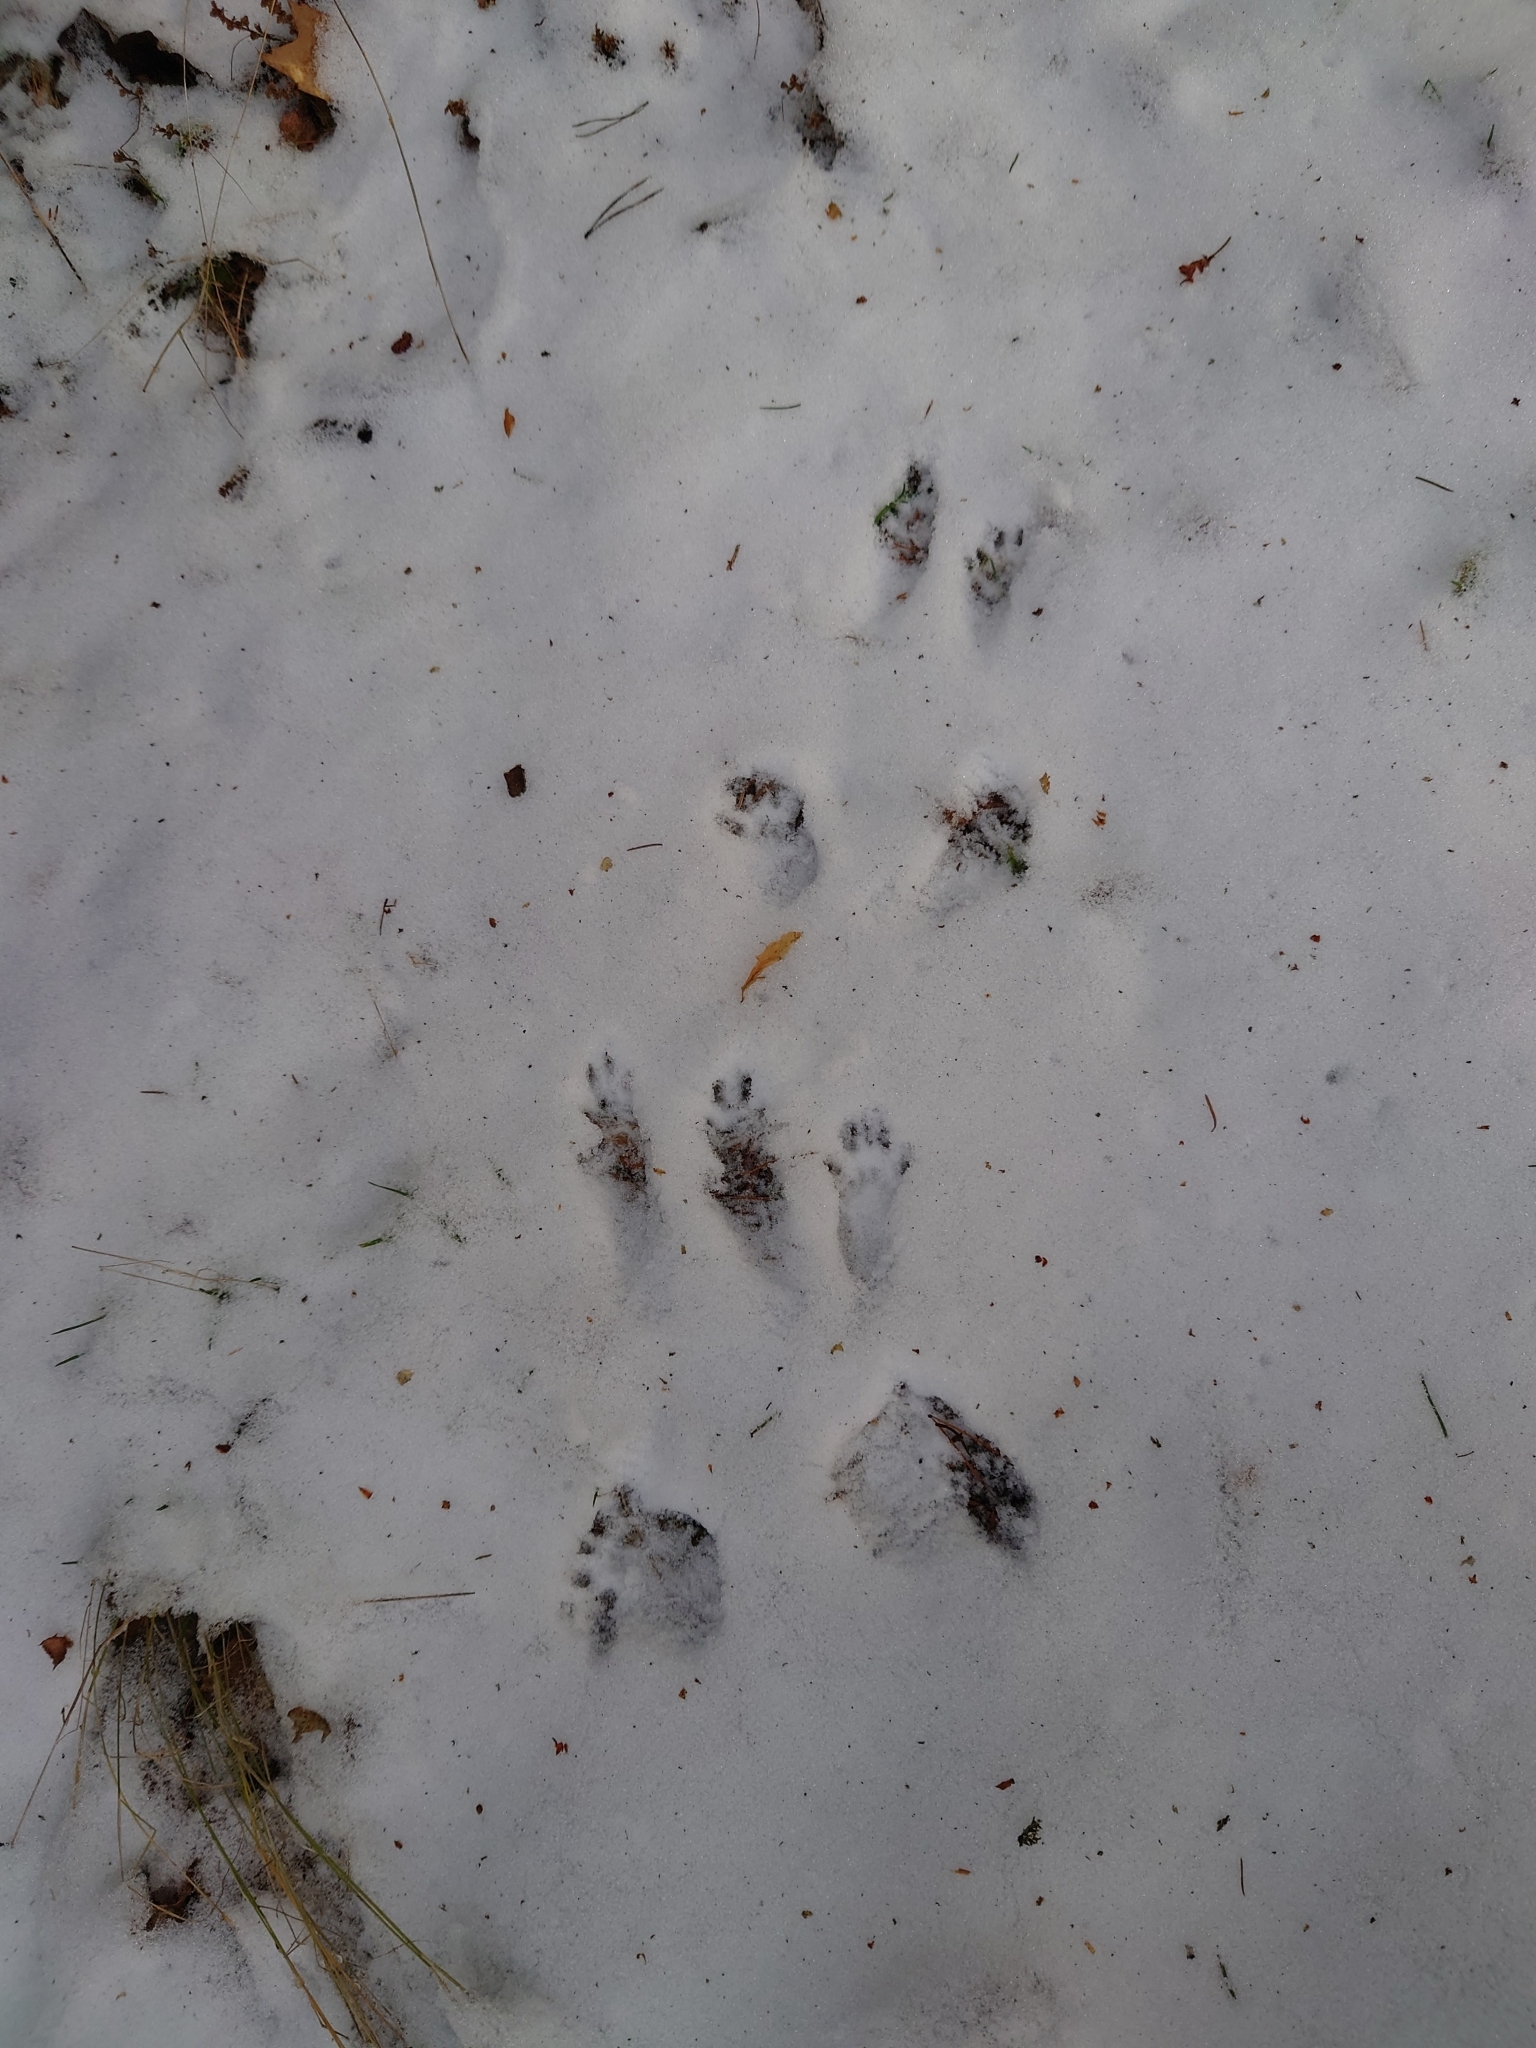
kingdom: Animalia
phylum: Chordata
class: Mammalia
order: Rodentia
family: Sciuridae
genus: Sciurus
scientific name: Sciurus vulgaris
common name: Eurasian red squirrel
